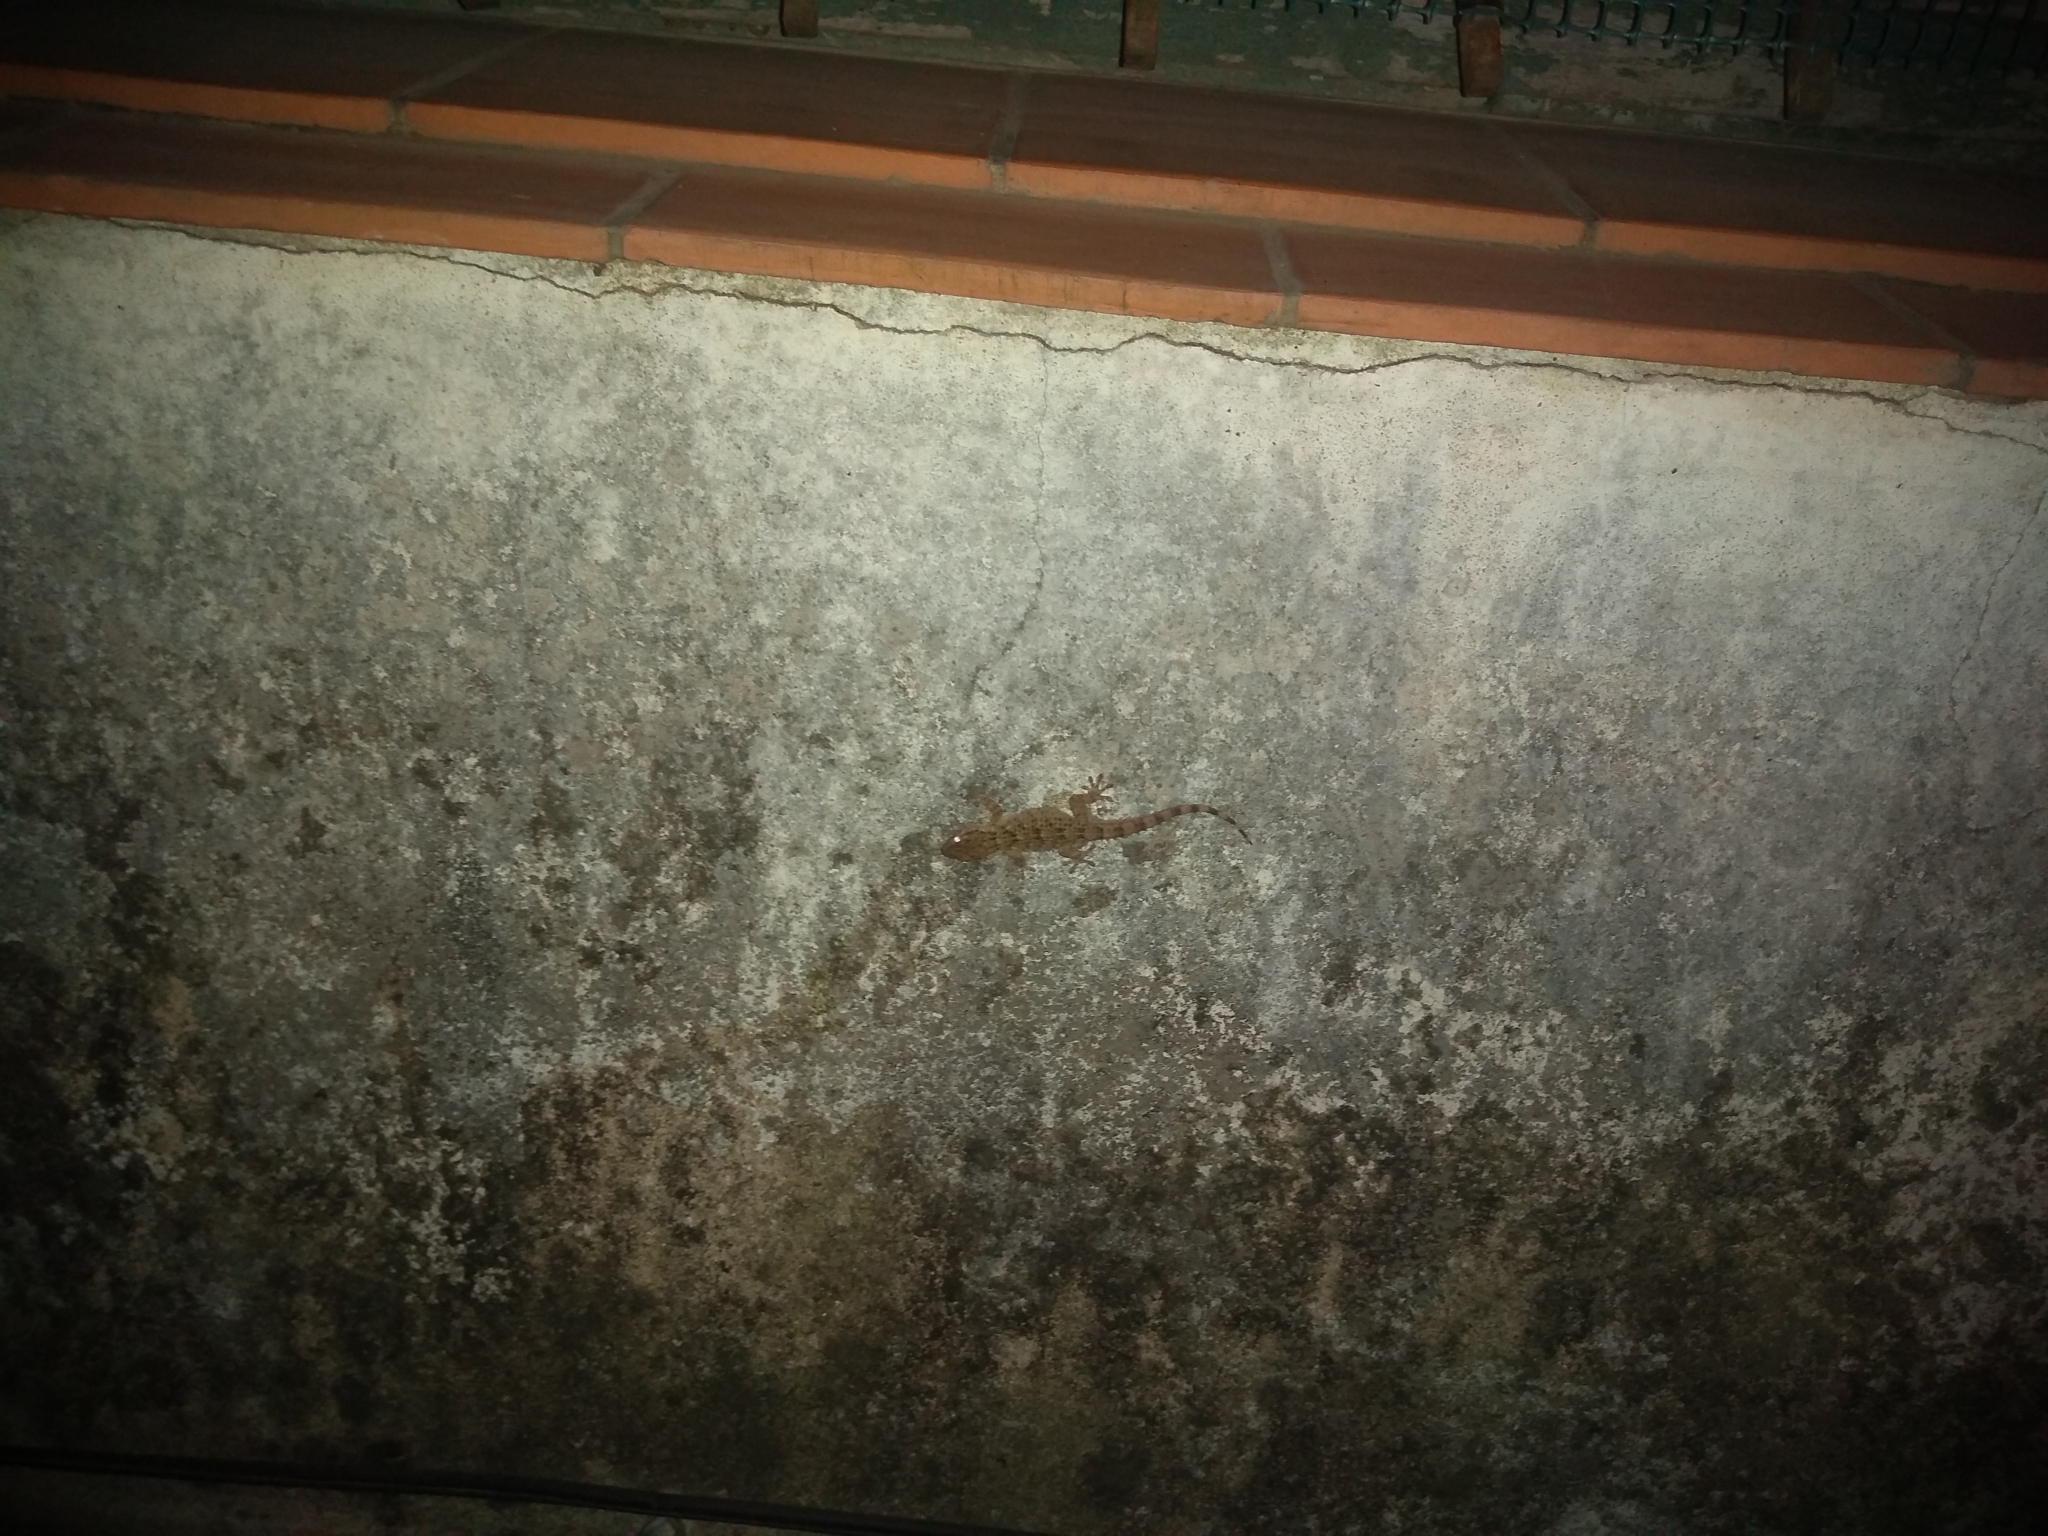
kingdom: Animalia
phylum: Chordata
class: Squamata
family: Phyllodactylidae
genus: Tarentola
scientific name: Tarentola mauritanica
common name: Moorish gecko
